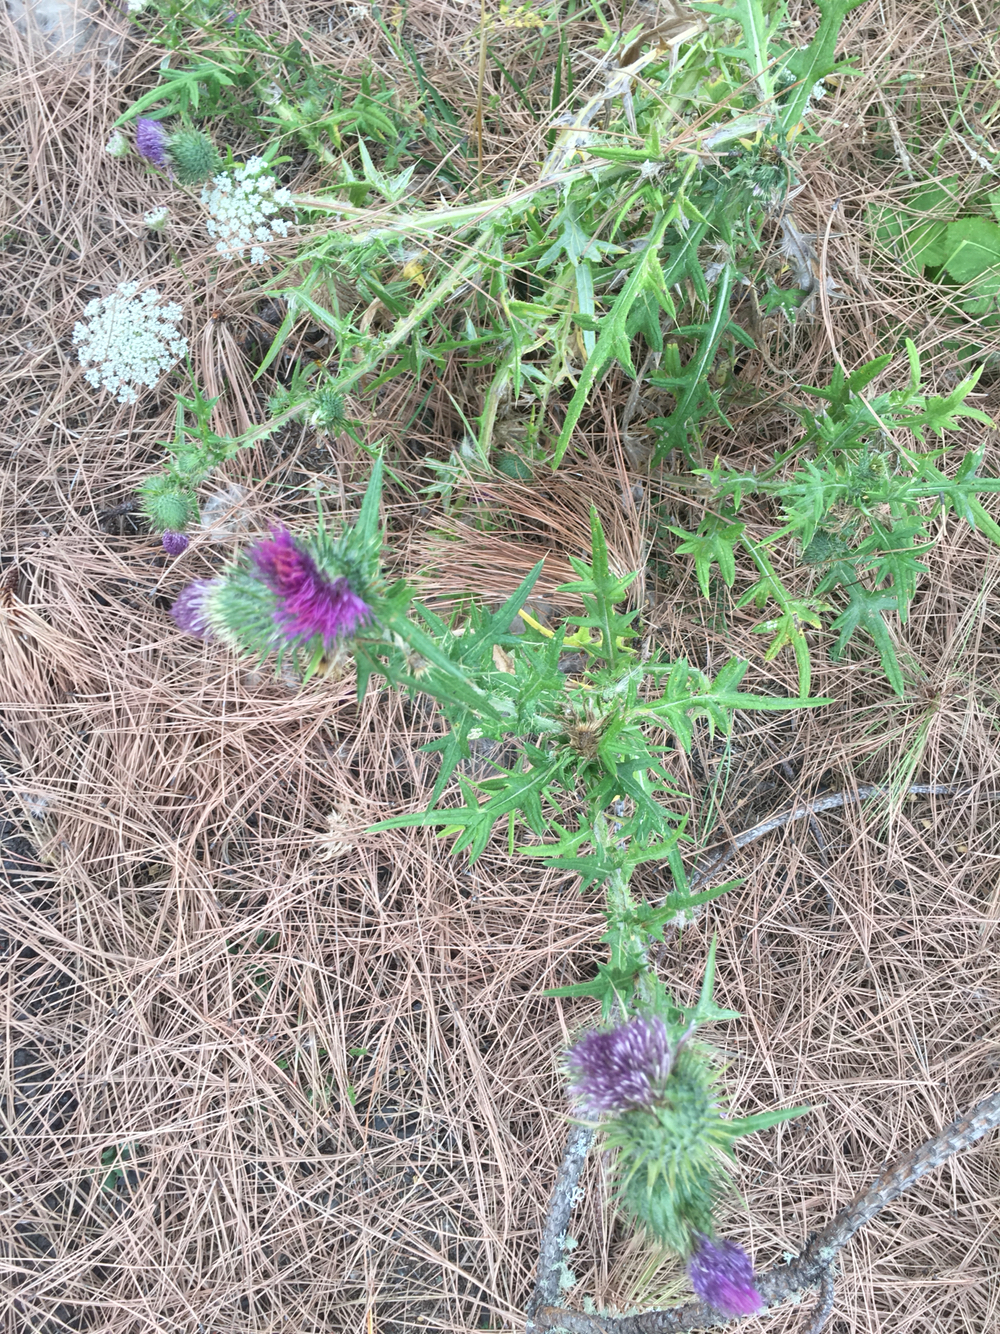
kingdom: Plantae
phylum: Tracheophyta
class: Magnoliopsida
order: Asterales
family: Asteraceae
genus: Cirsium
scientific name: Cirsium vulgare
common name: Bull thistle
